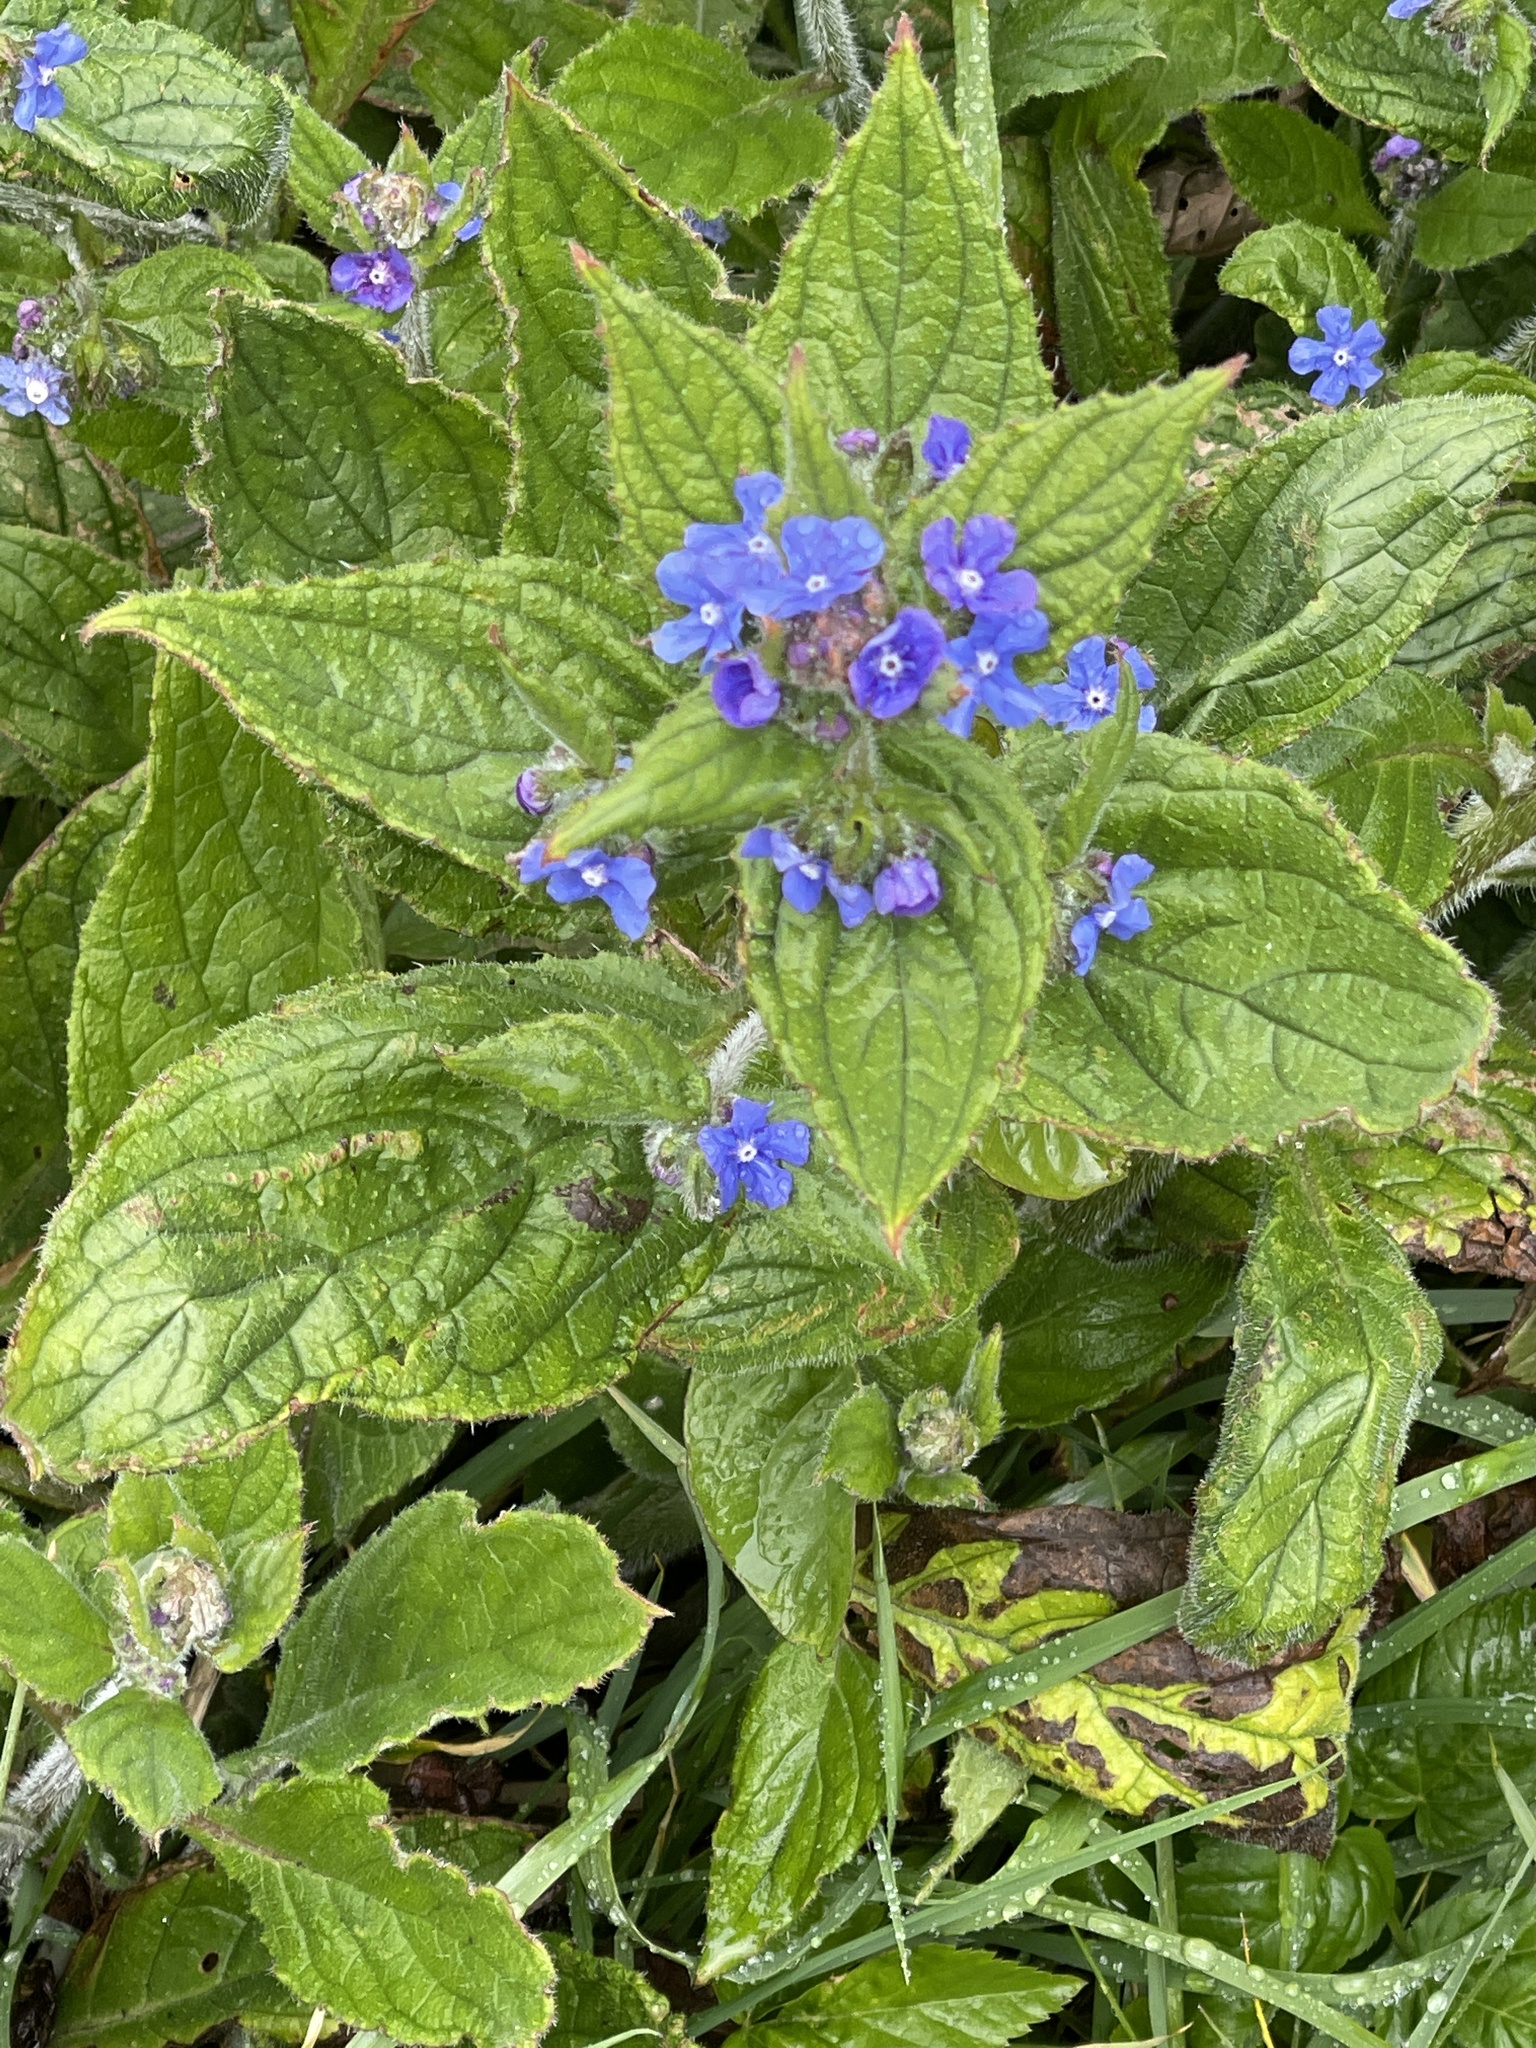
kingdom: Plantae
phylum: Tracheophyta
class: Magnoliopsida
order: Boraginales
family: Boraginaceae
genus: Pentaglottis
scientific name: Pentaglottis sempervirens
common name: Green alkanet
